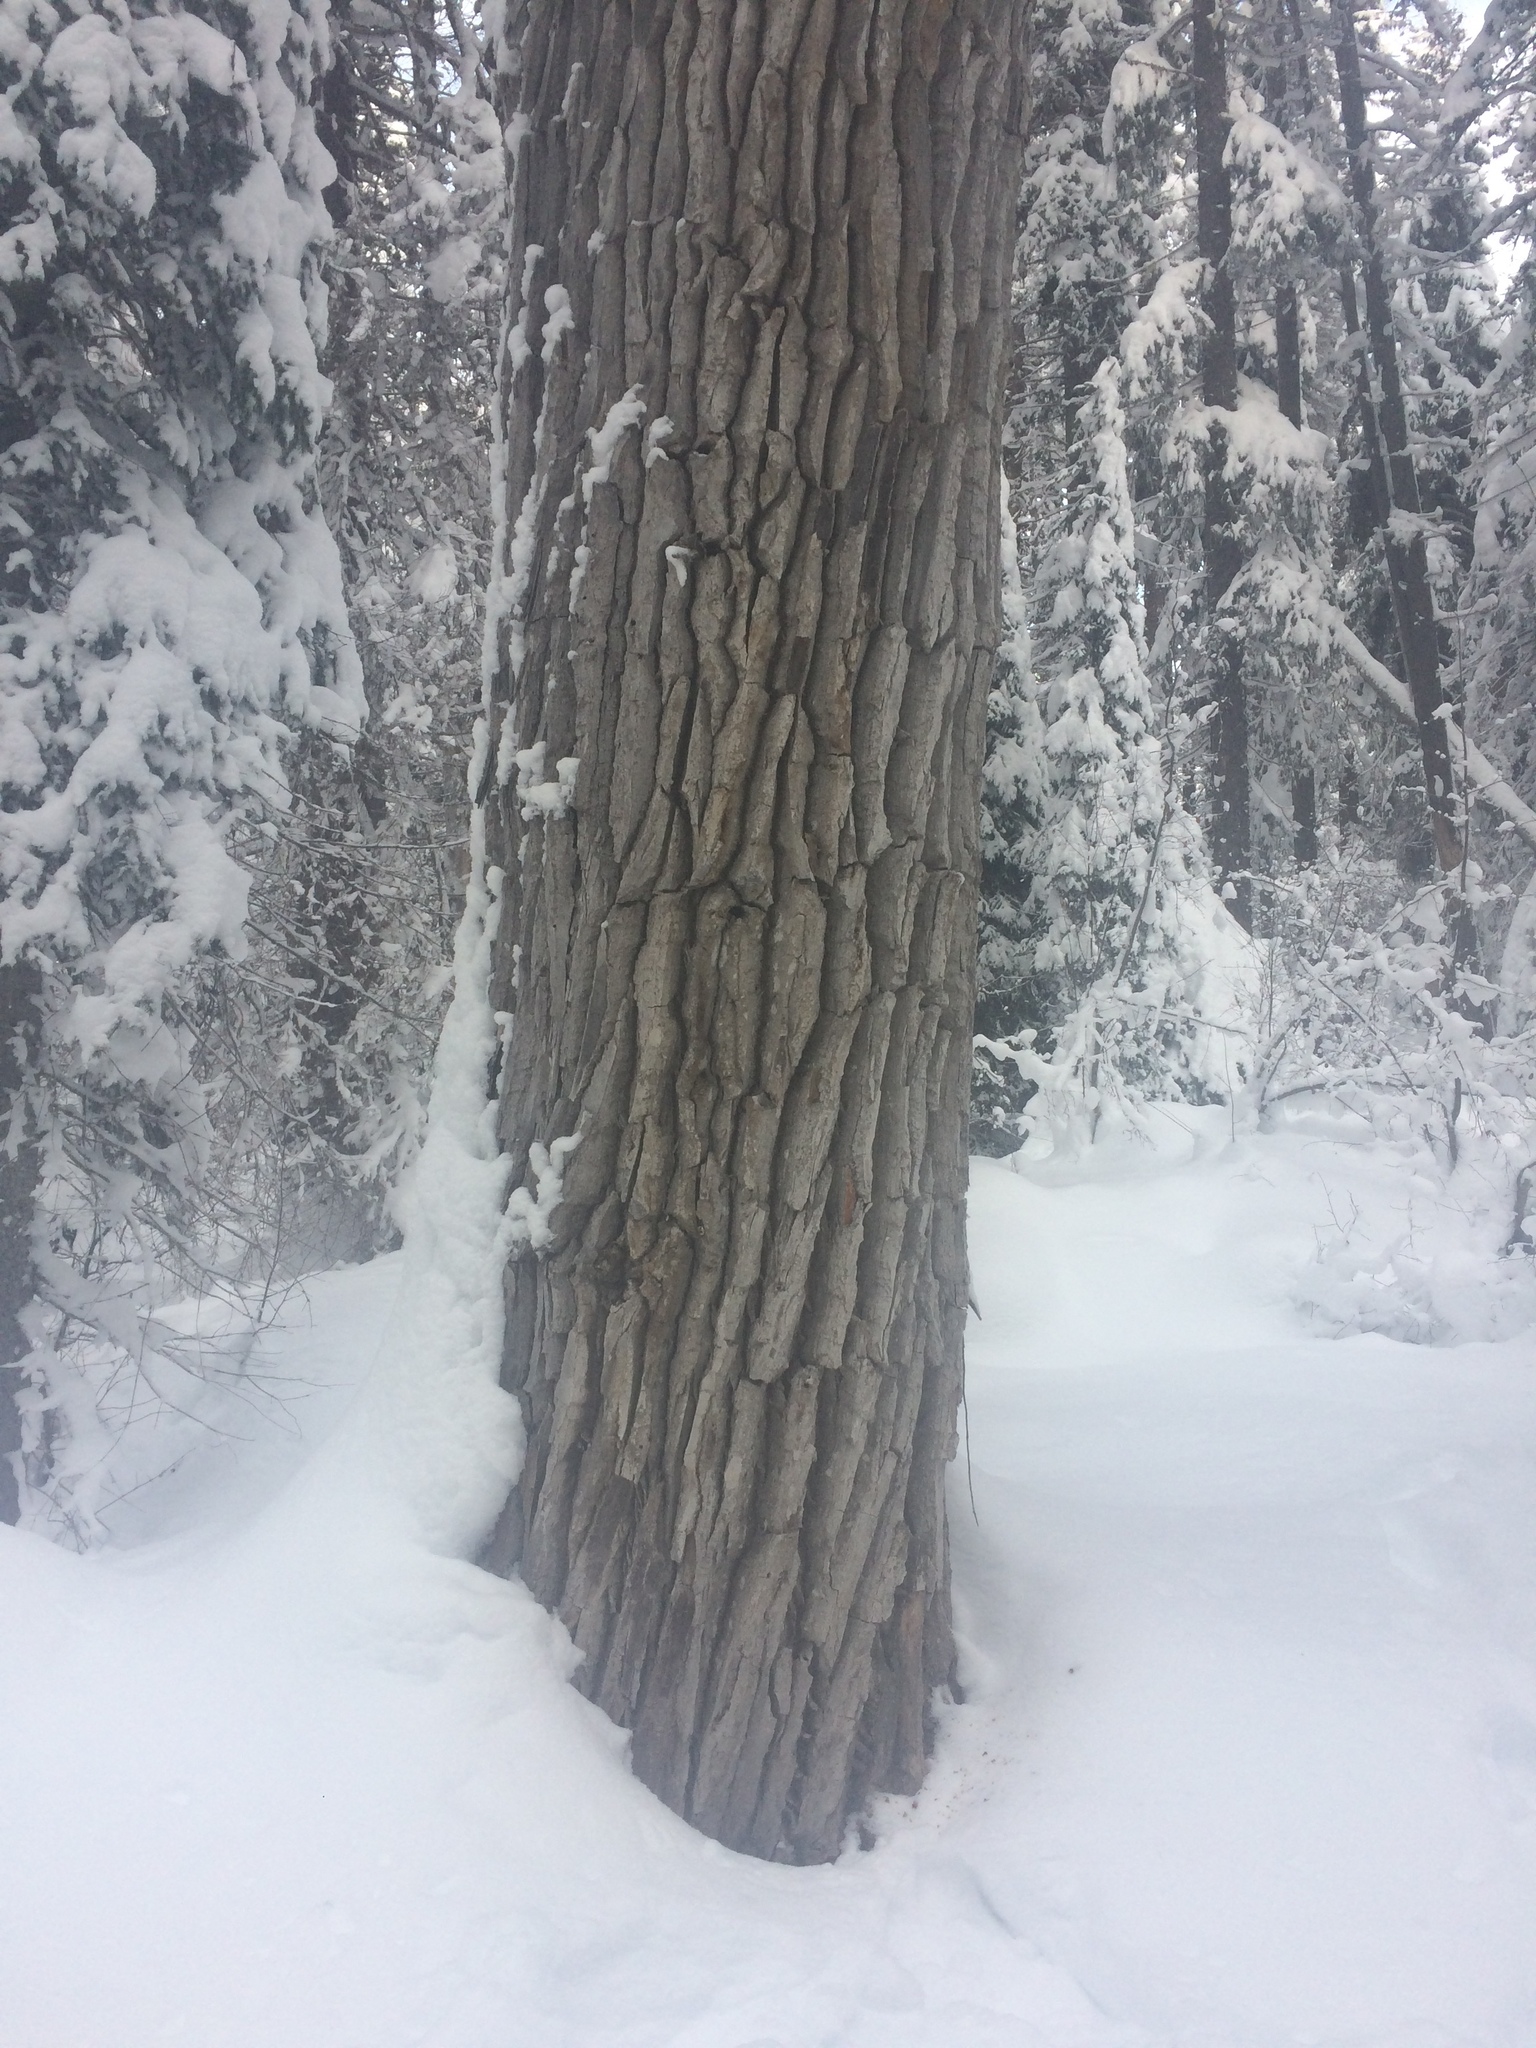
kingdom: Plantae
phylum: Tracheophyta
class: Magnoliopsida
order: Malpighiales
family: Salicaceae
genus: Populus
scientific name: Populus trichocarpa
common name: Black cottonwood
